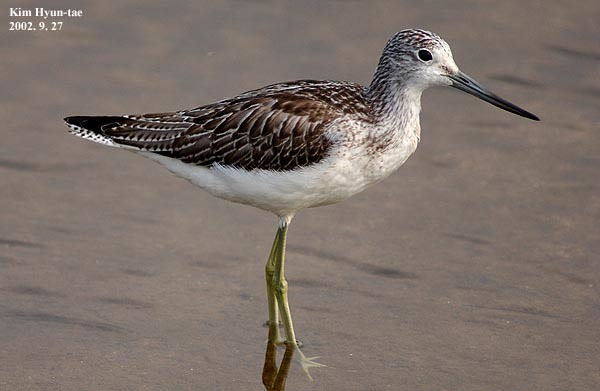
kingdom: Animalia
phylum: Chordata
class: Aves
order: Charadriiformes
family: Scolopacidae
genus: Tringa
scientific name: Tringa nebularia
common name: Common greenshank
